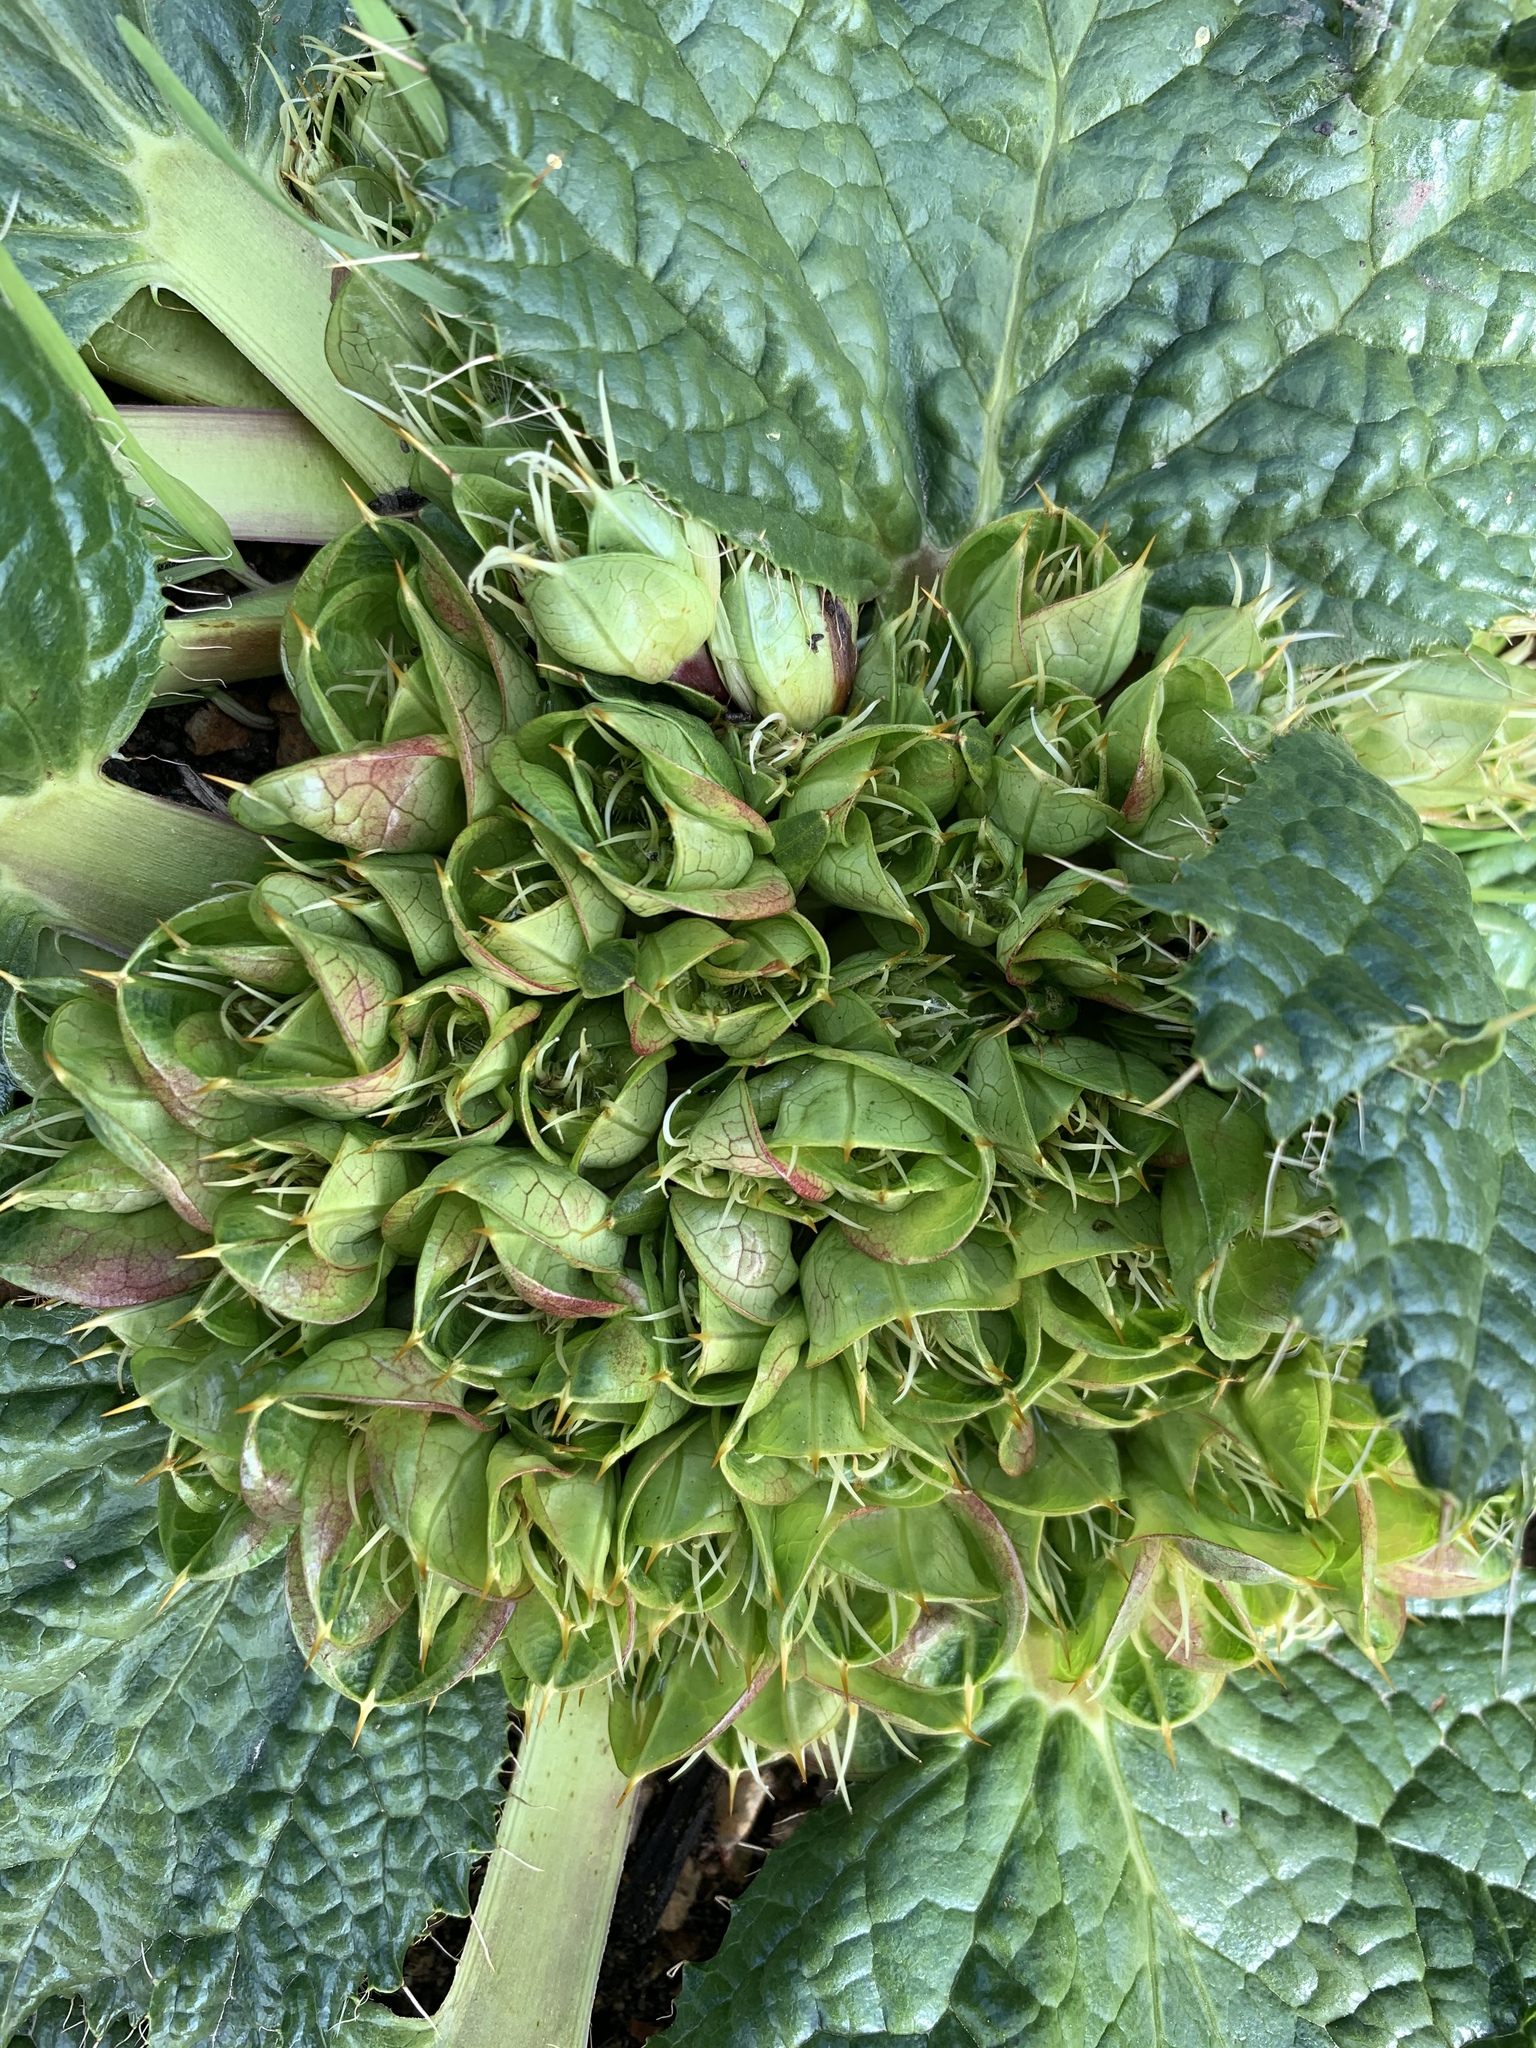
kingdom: Plantae
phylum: Tracheophyta
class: Magnoliopsida
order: Apiales
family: Apiaceae
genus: Arctopus
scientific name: Arctopus monacanthus
